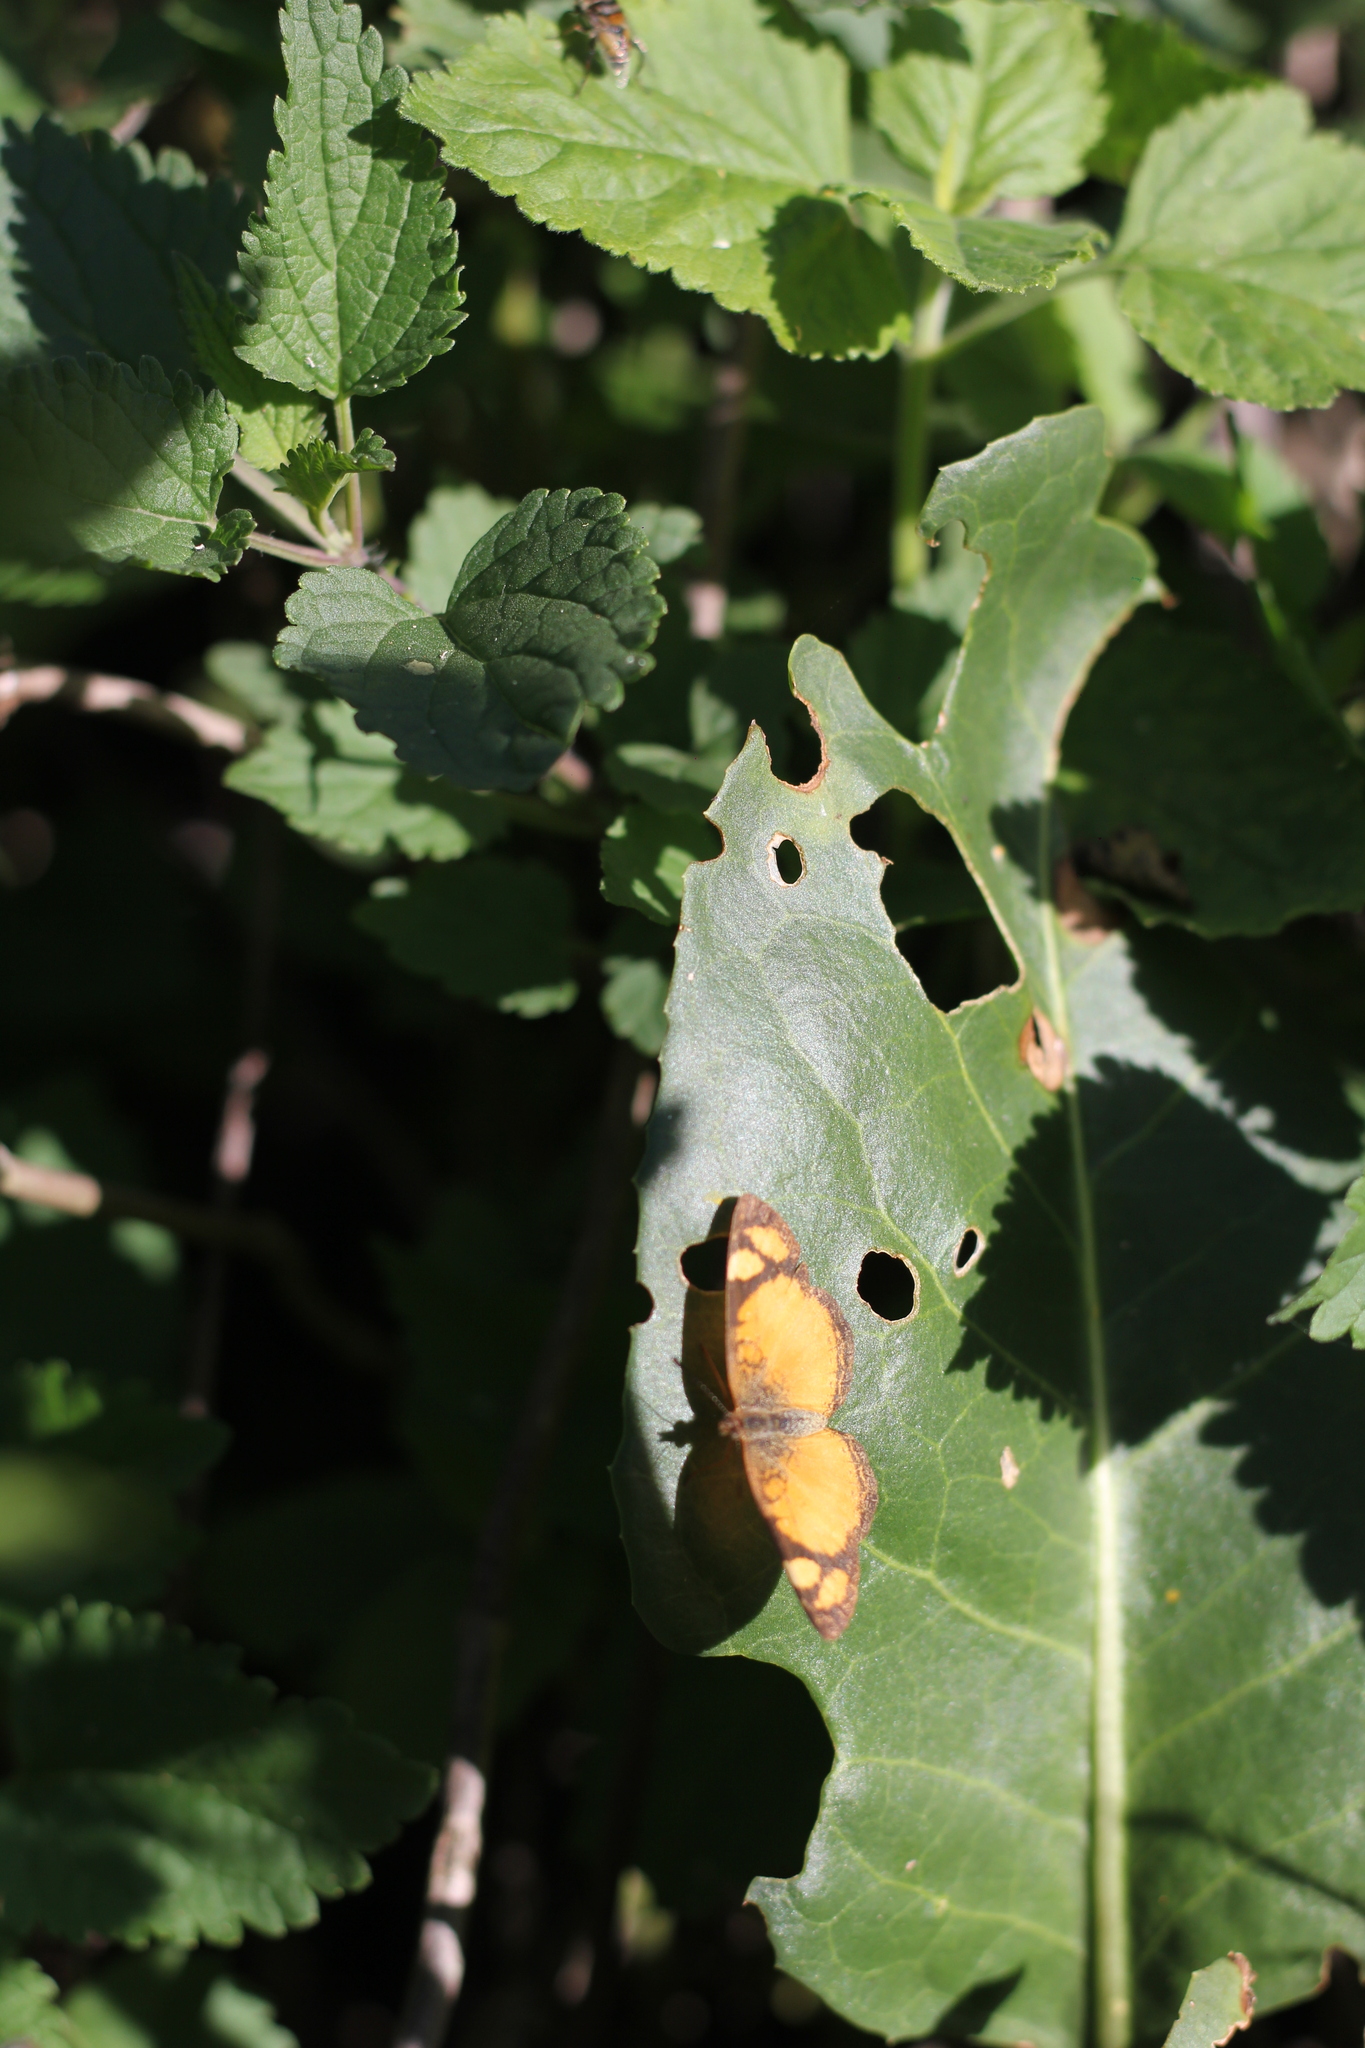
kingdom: Animalia
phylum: Arthropoda
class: Insecta
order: Lepidoptera
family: Nymphalidae
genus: Tegosa
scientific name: Tegosa claudina
